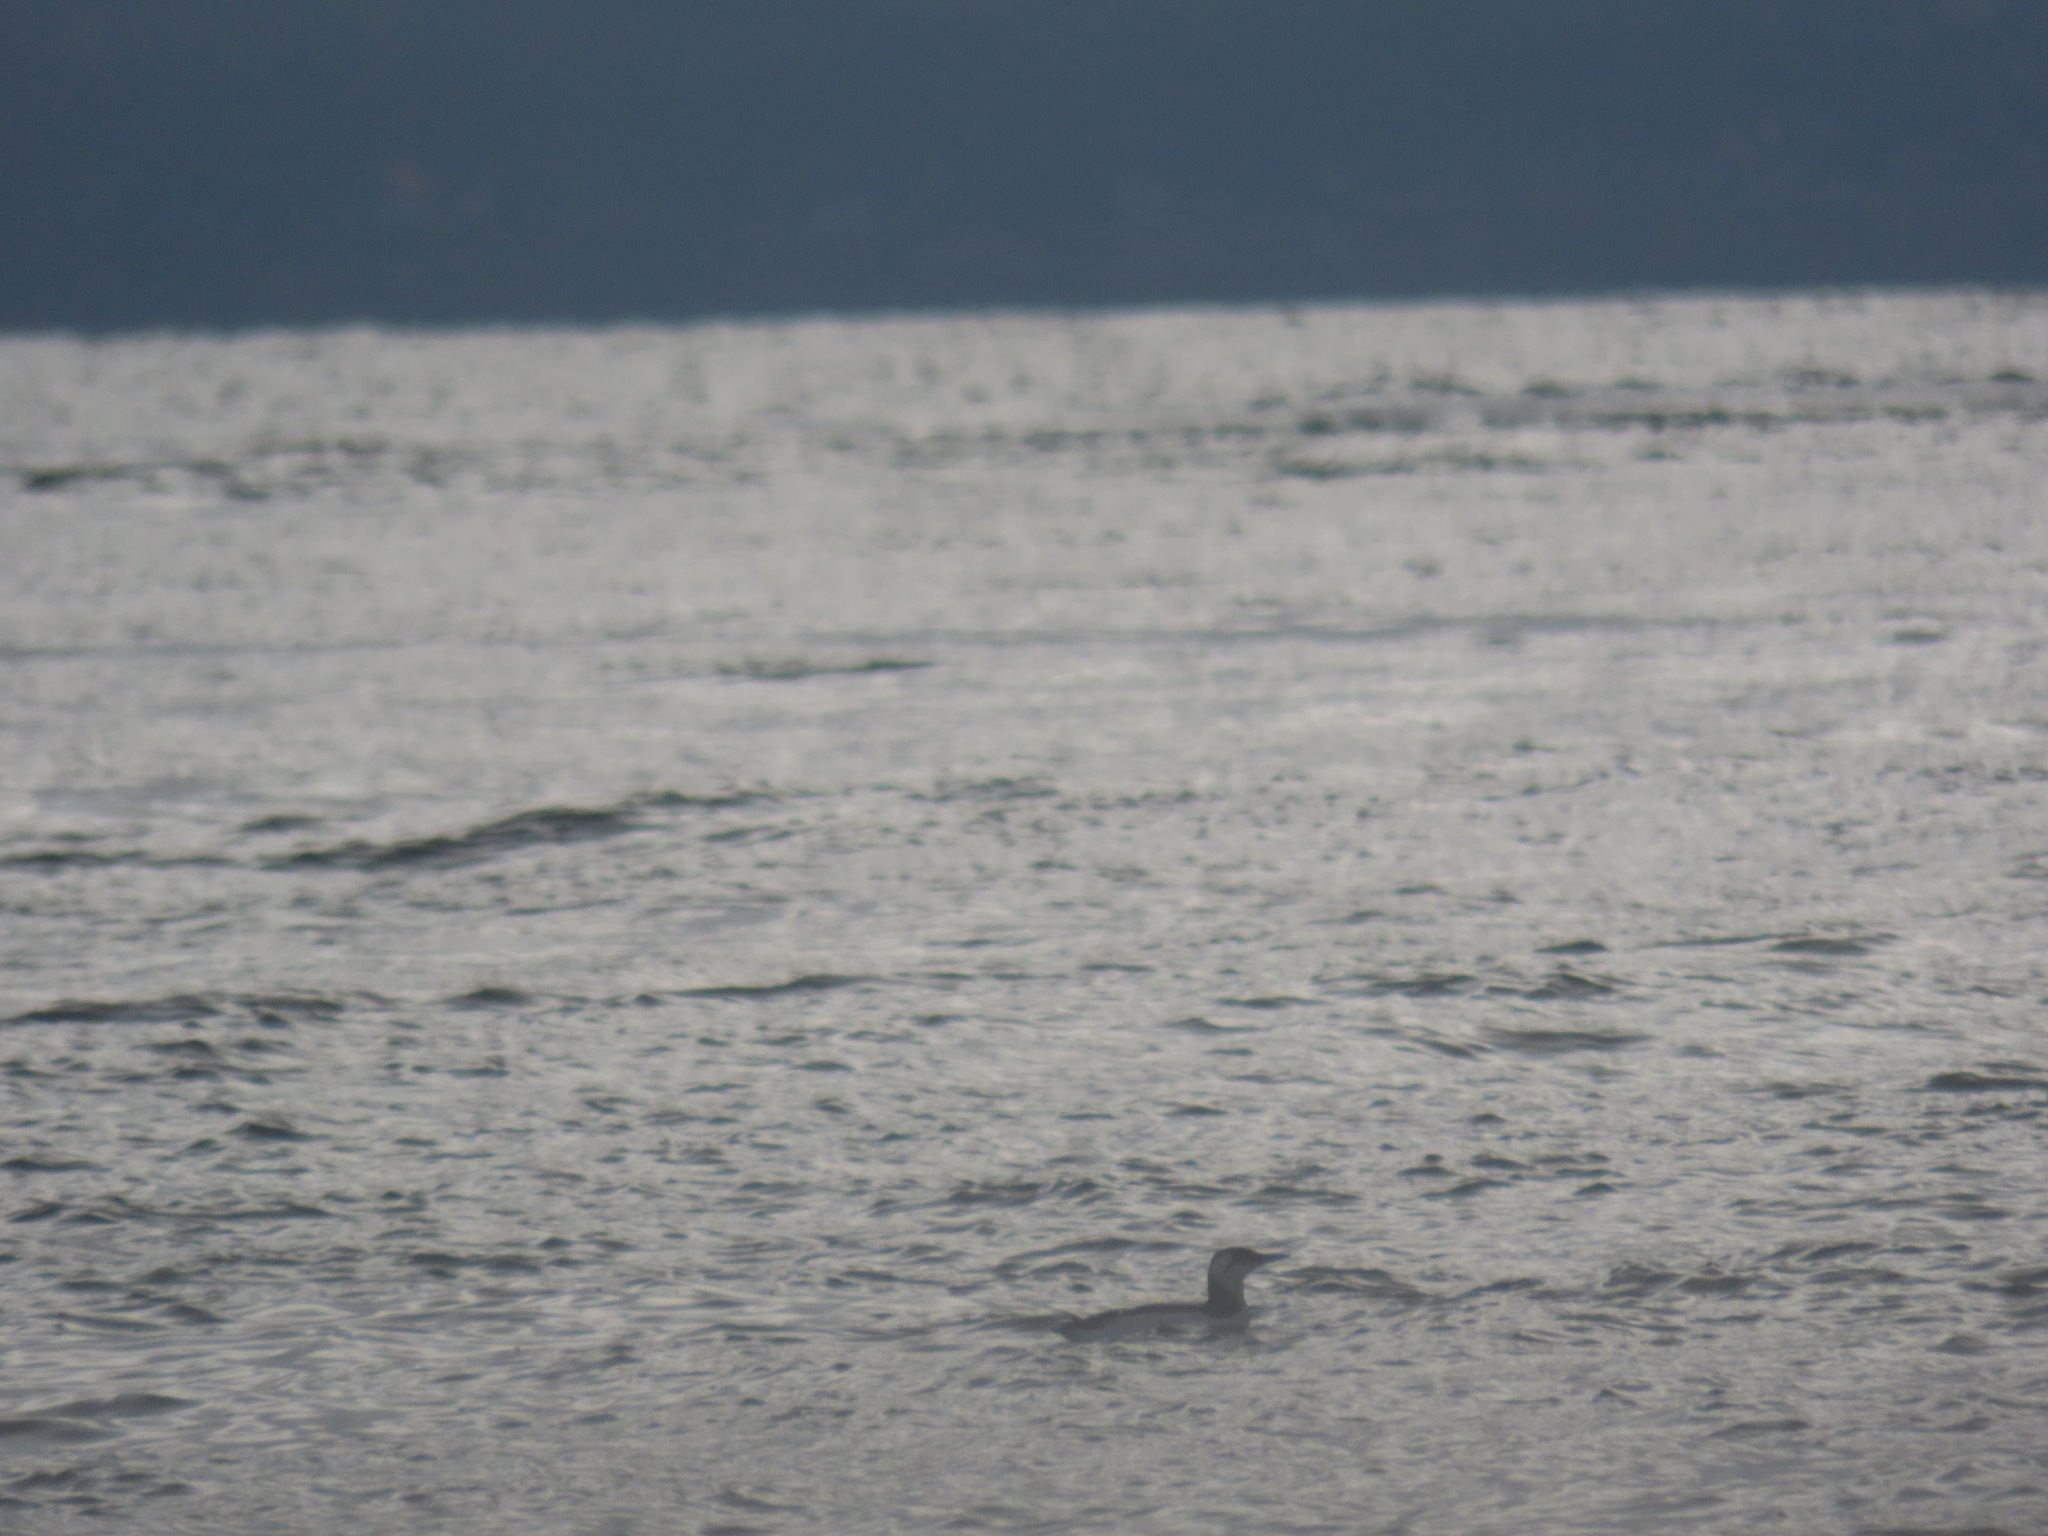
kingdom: Animalia
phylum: Chordata
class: Aves
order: Charadriiformes
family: Alcidae
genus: Uria
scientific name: Uria aalge
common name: Common murre
